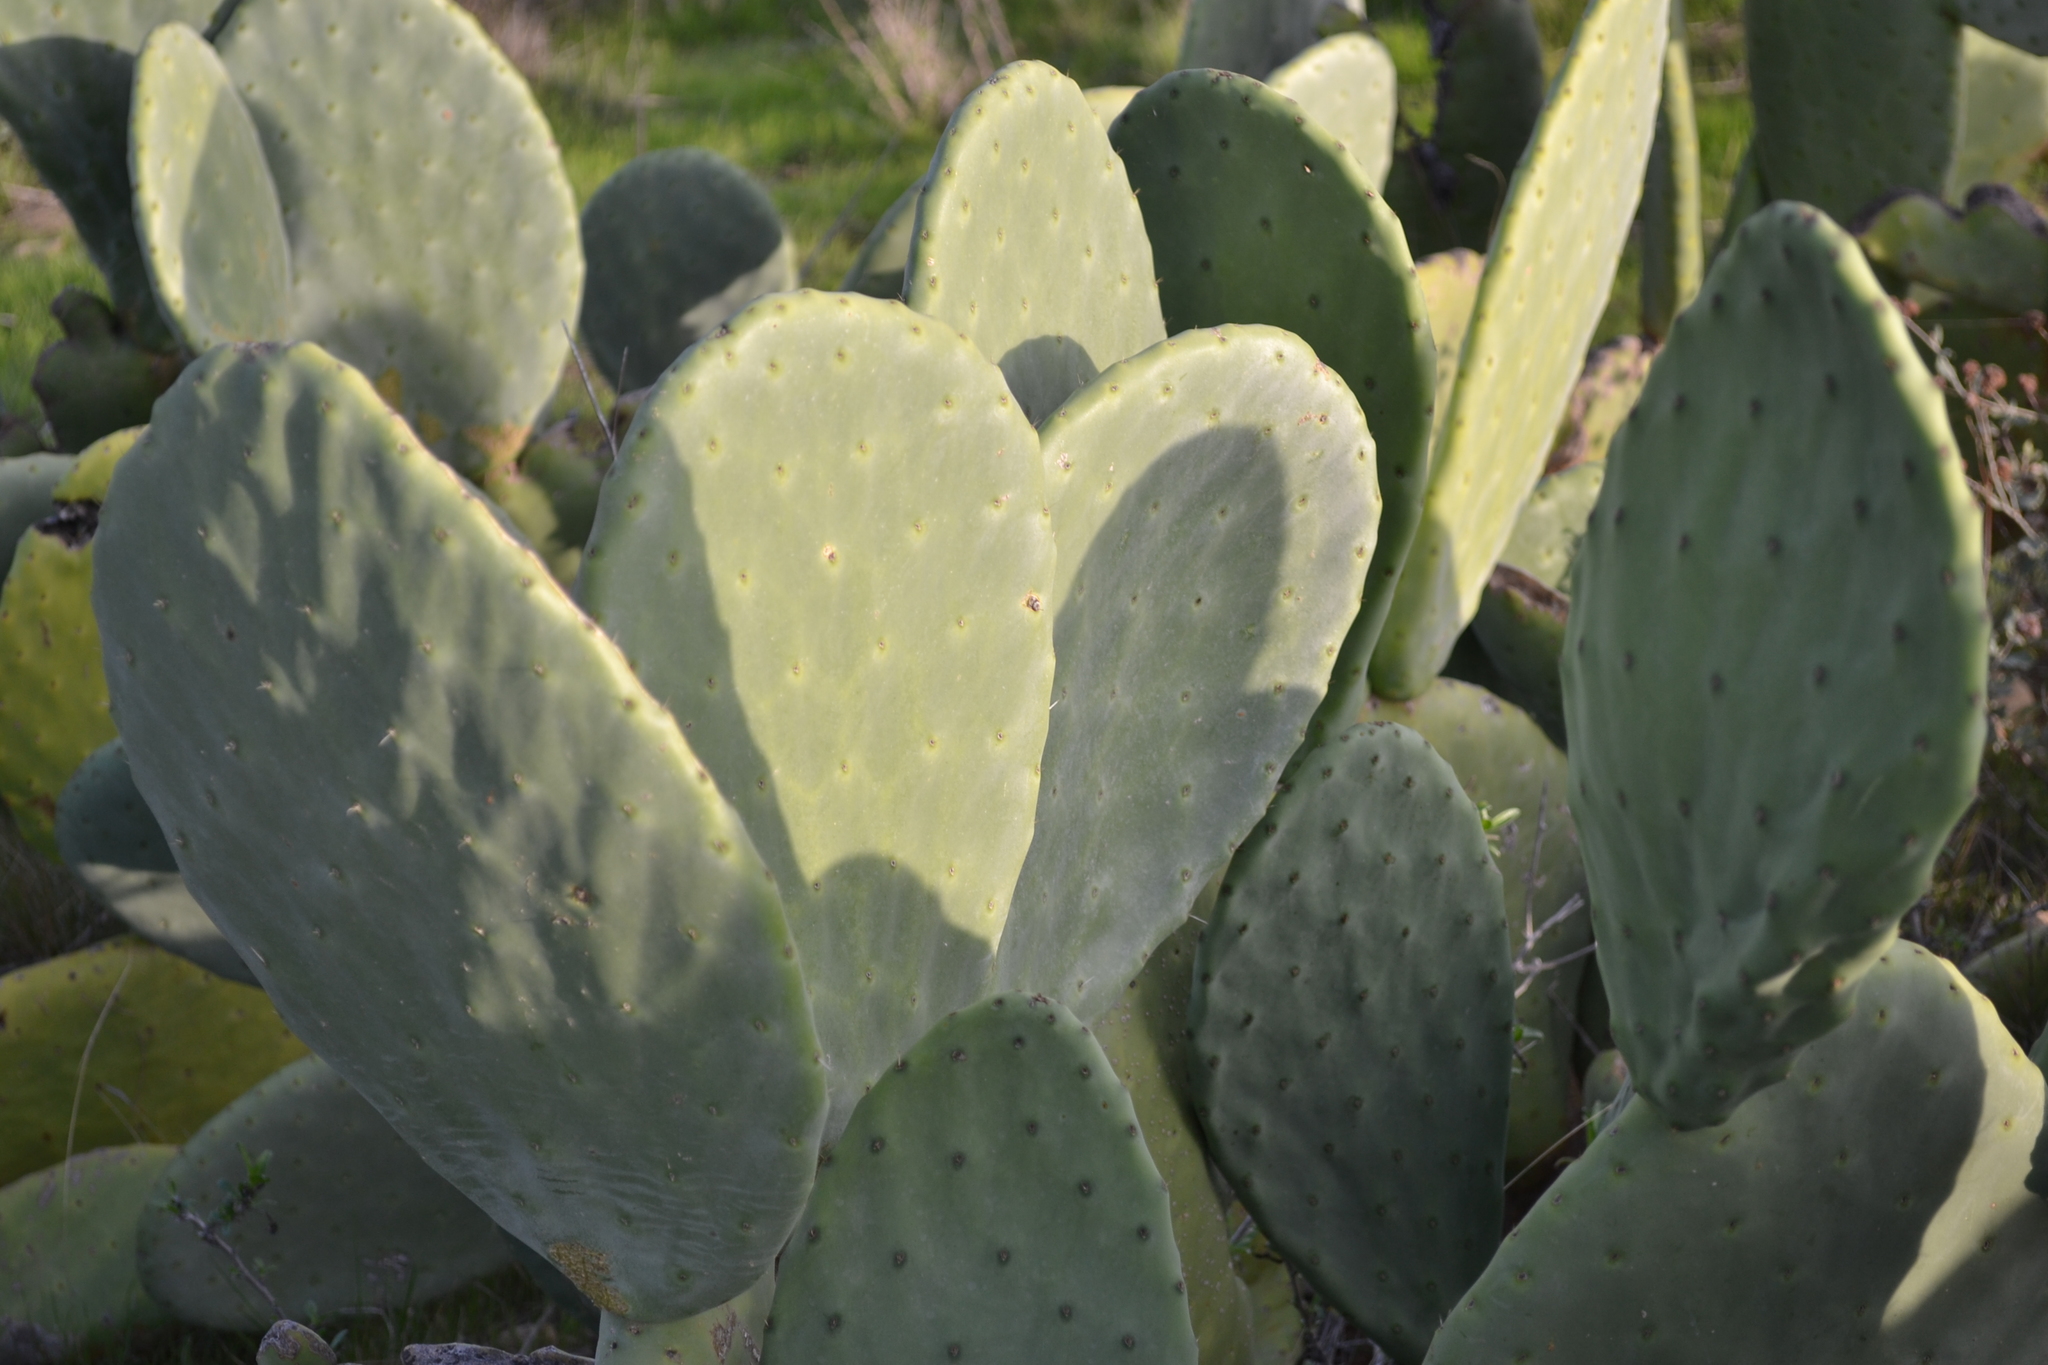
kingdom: Plantae
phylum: Tracheophyta
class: Magnoliopsida
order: Caryophyllales
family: Cactaceae
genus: Opuntia
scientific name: Opuntia ficus-indica
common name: Barbary fig
